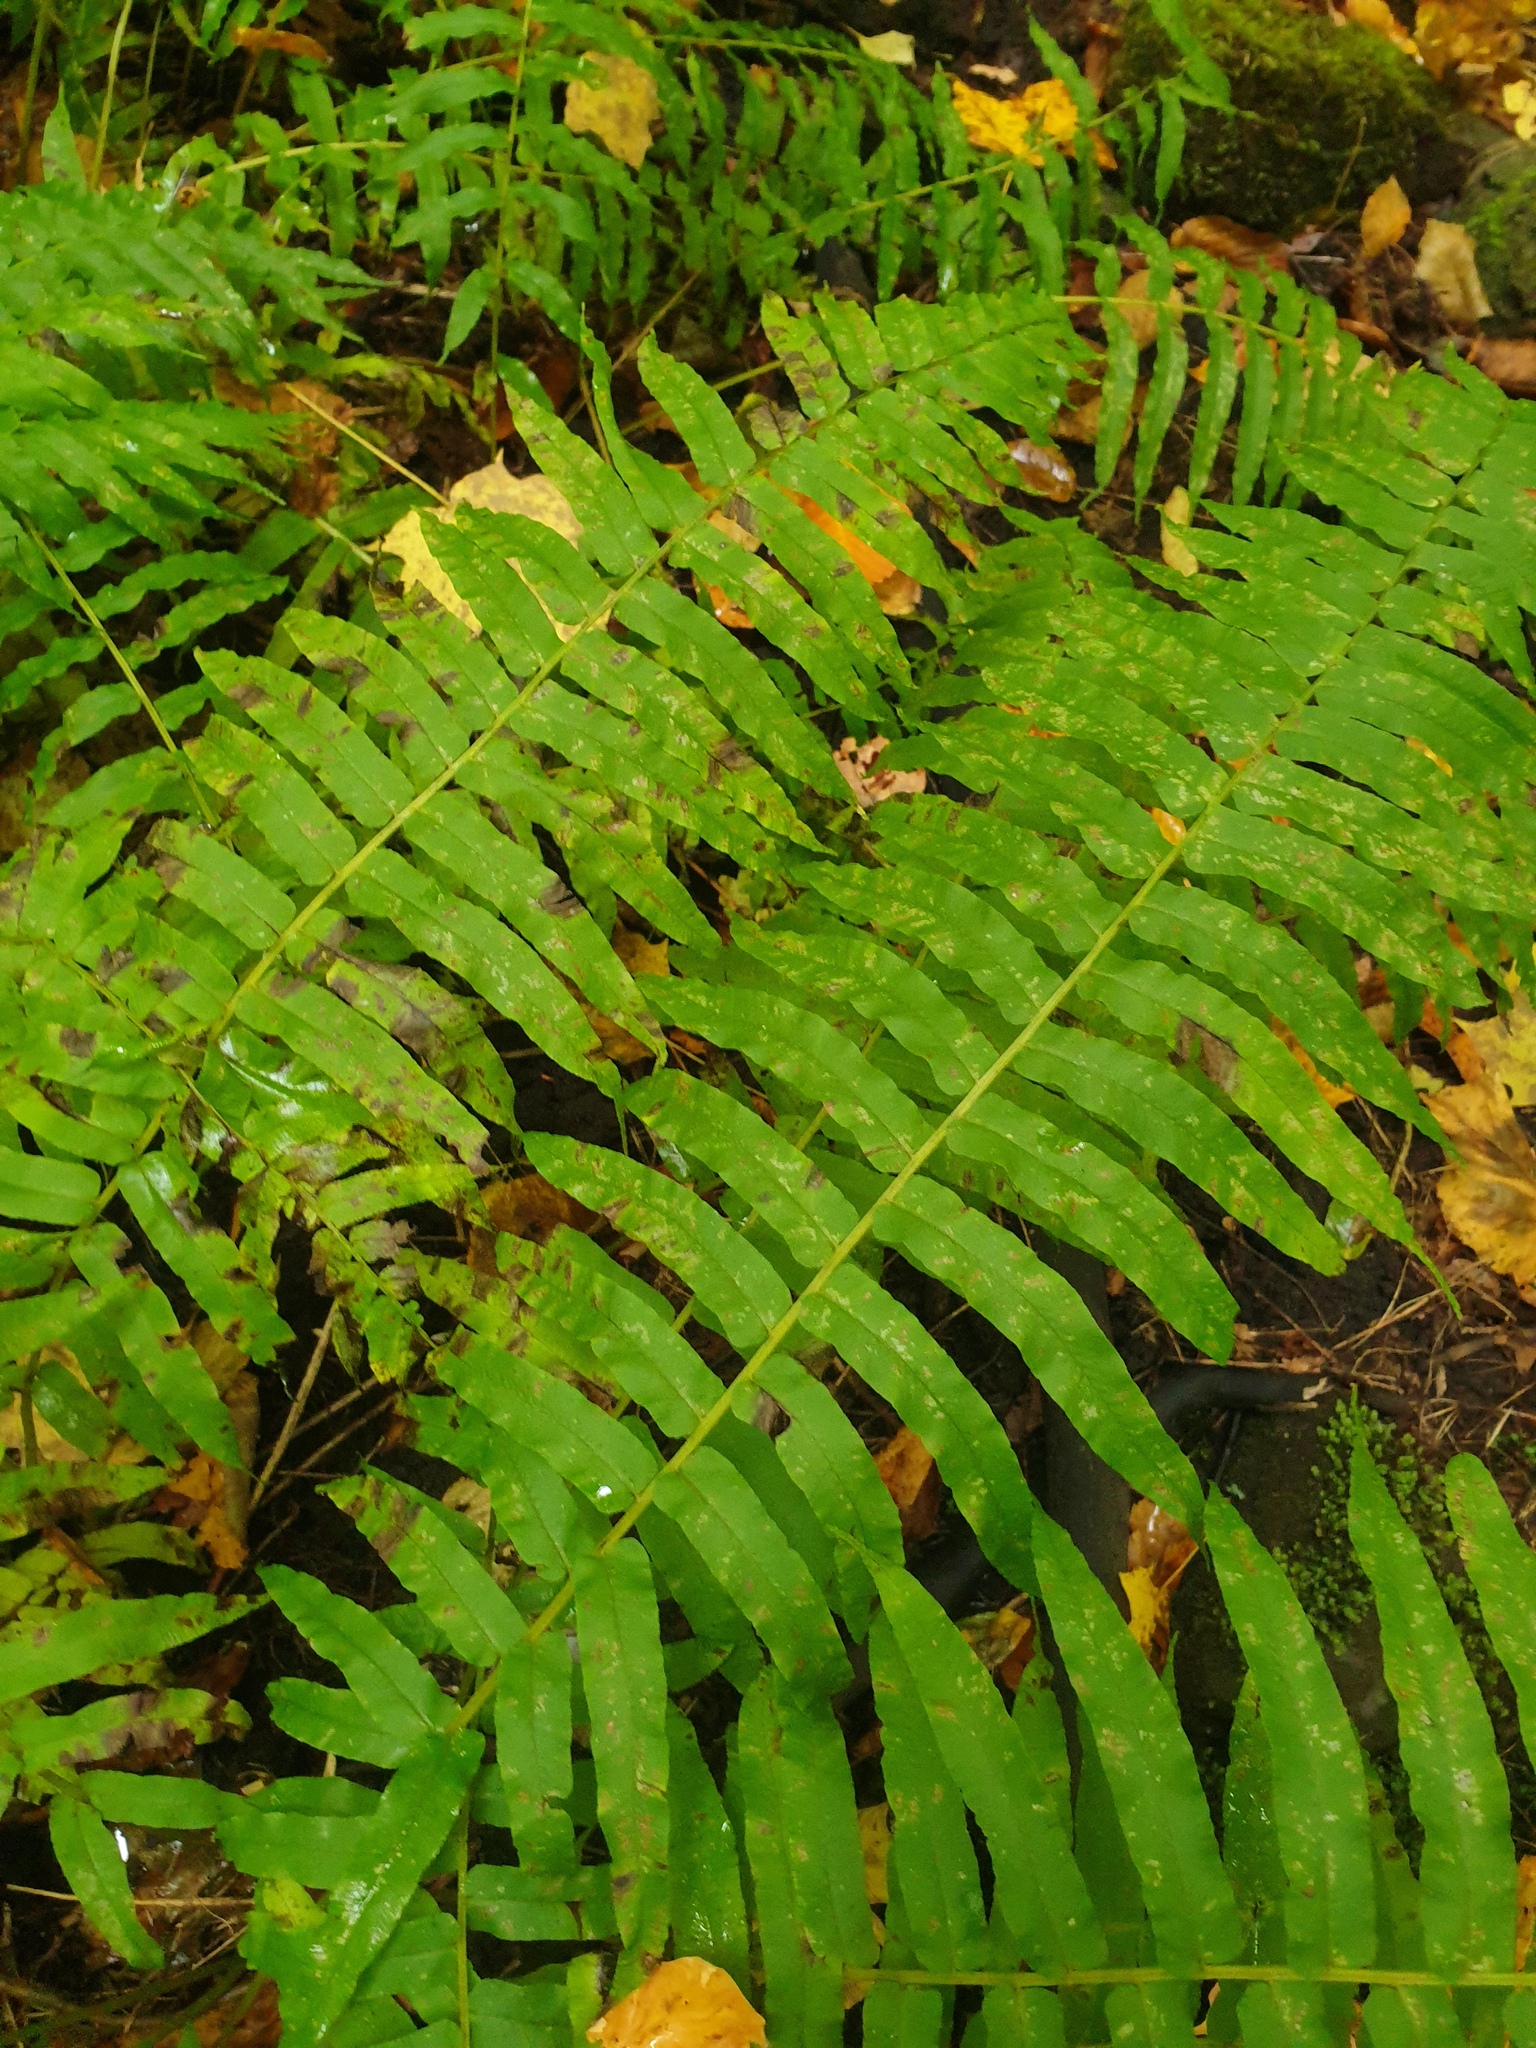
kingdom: Plantae
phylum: Tracheophyta
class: Polypodiopsida
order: Polypodiales
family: Diplaziopsidaceae
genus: Homalosorus
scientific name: Homalosorus pycnocarpos
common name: Glade fern
